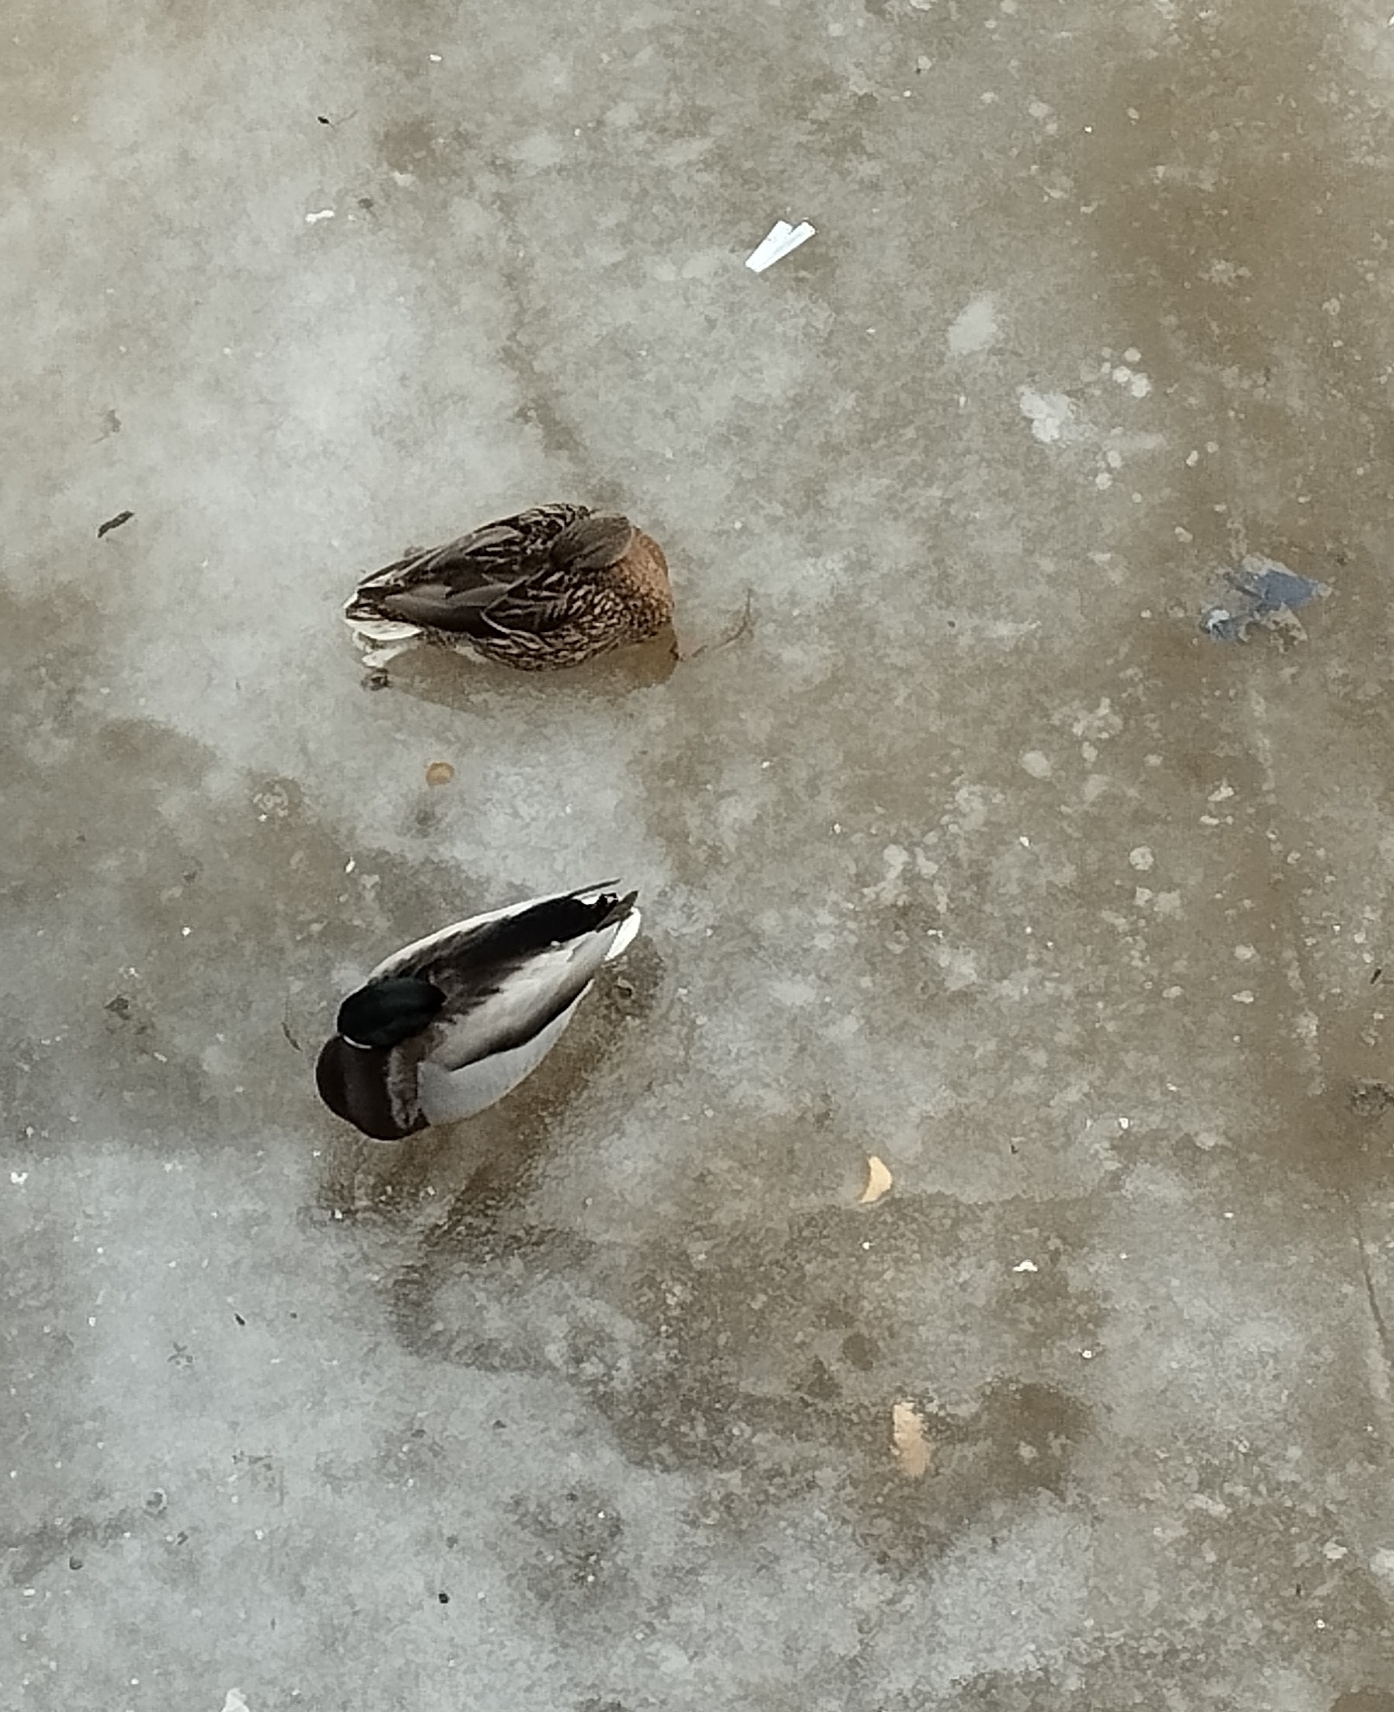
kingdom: Animalia
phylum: Chordata
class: Aves
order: Anseriformes
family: Anatidae
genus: Anas
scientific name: Anas platyrhynchos
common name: Mallard
